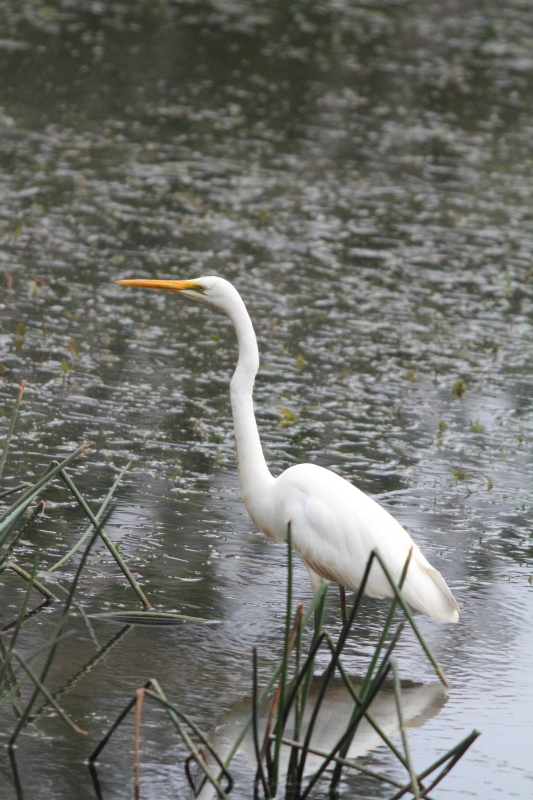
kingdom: Animalia
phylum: Chordata
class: Aves
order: Pelecaniformes
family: Ardeidae
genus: Ardea
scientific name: Ardea modesta
